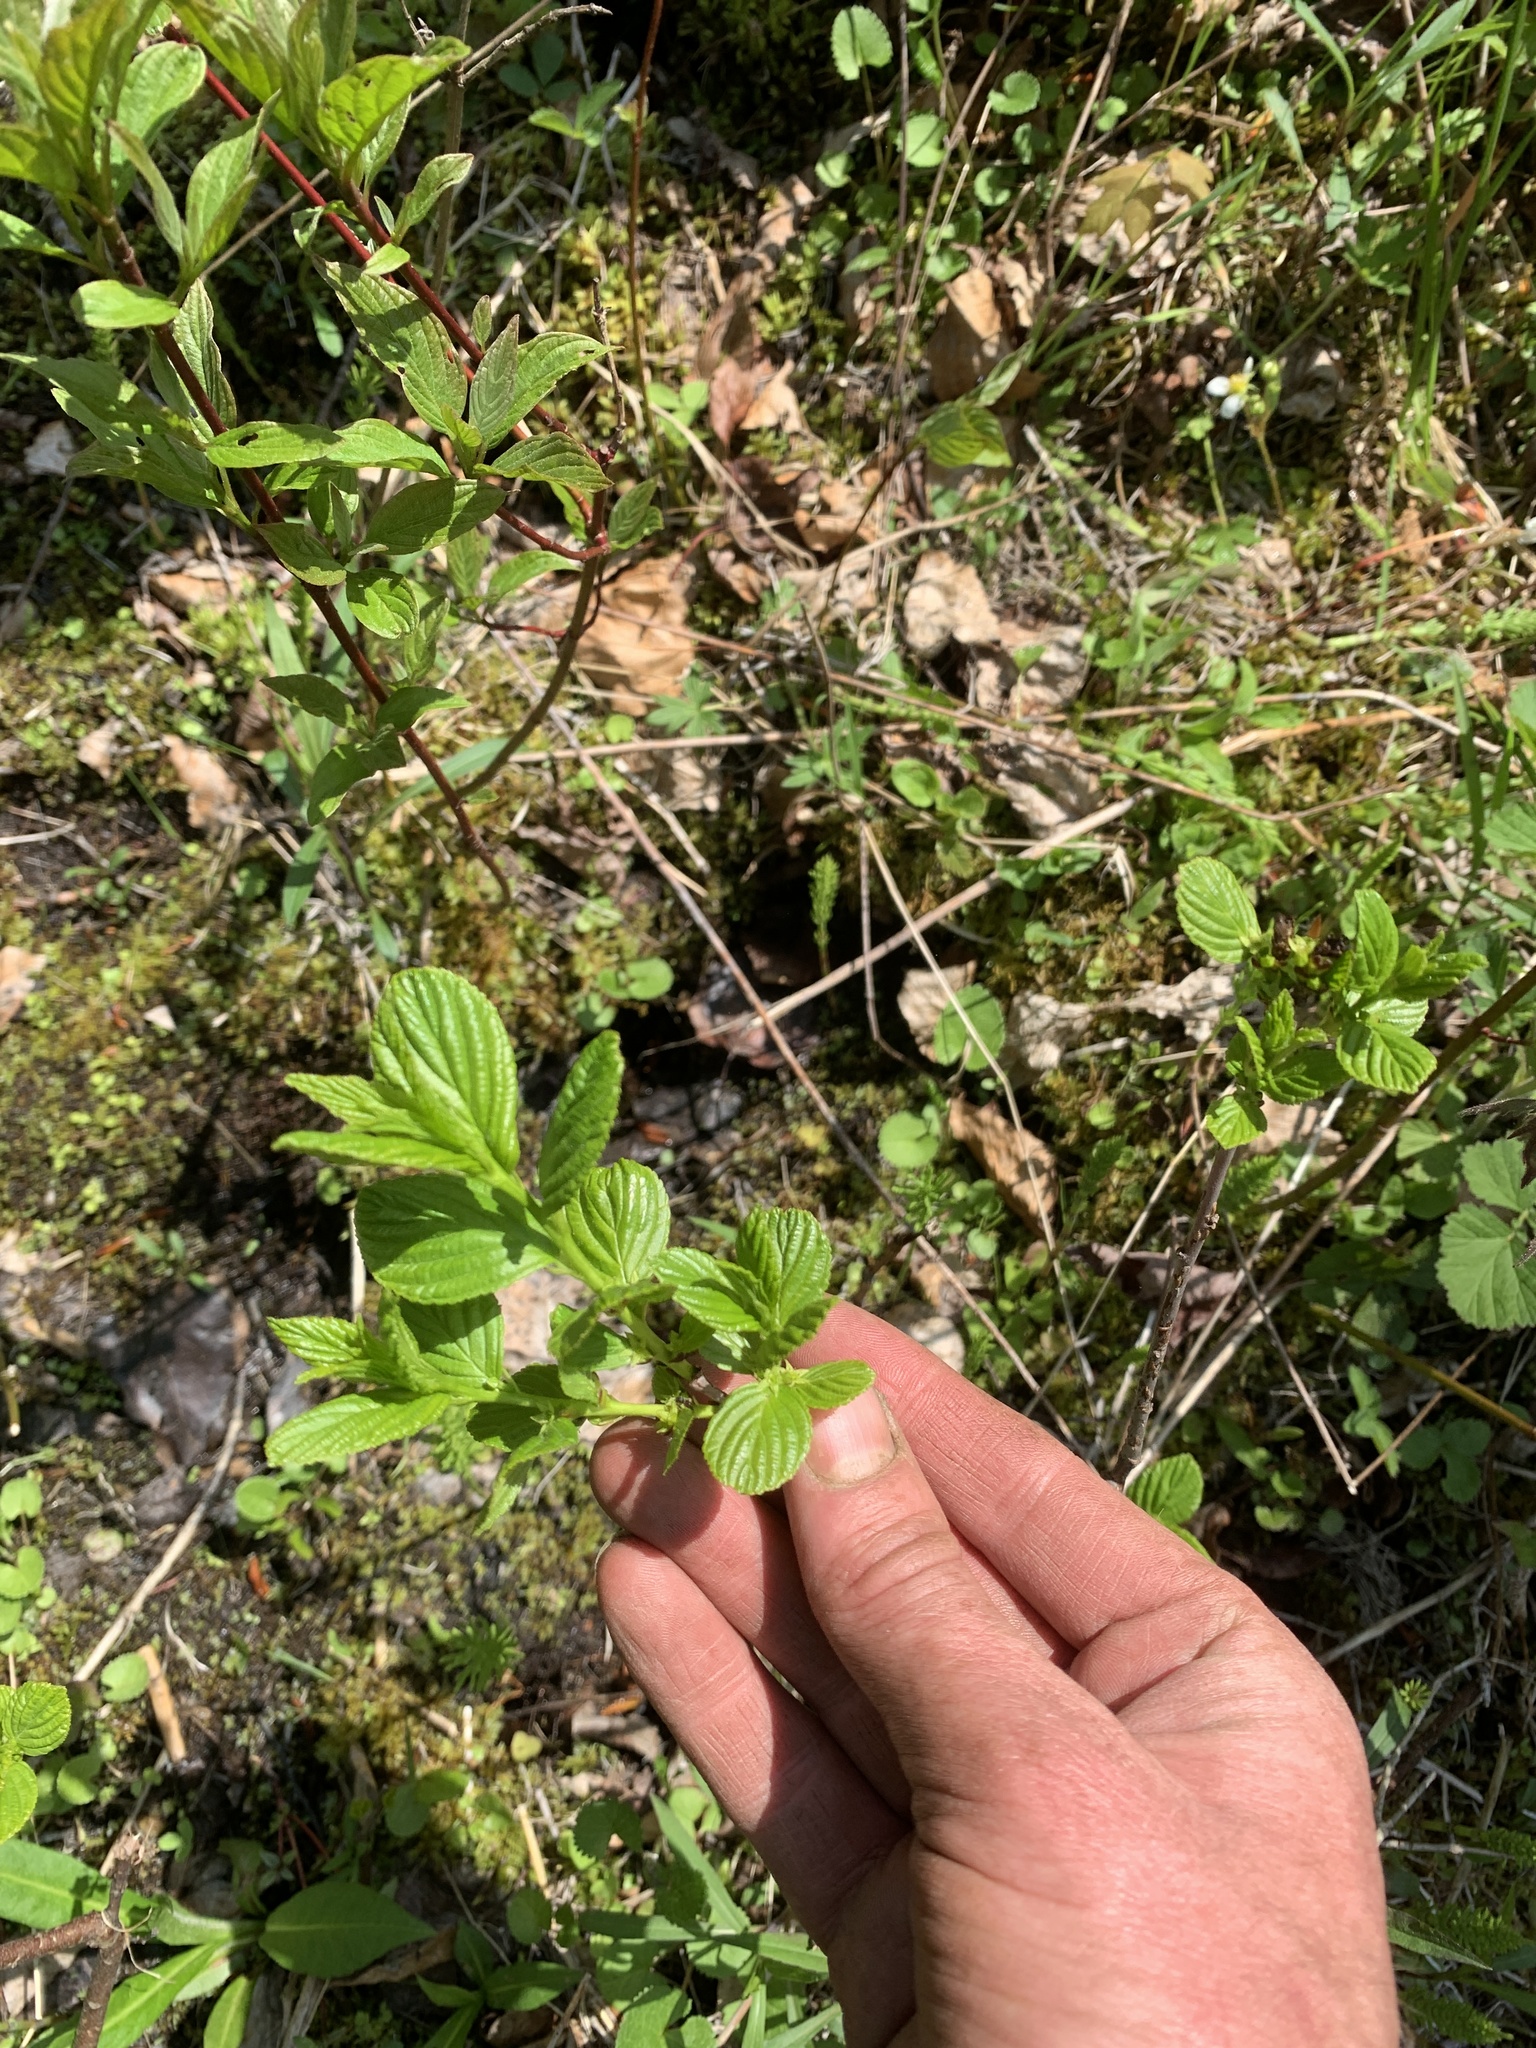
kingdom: Plantae
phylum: Tracheophyta
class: Magnoliopsida
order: Rosales
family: Rhamnaceae
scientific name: Rhamnaceae
